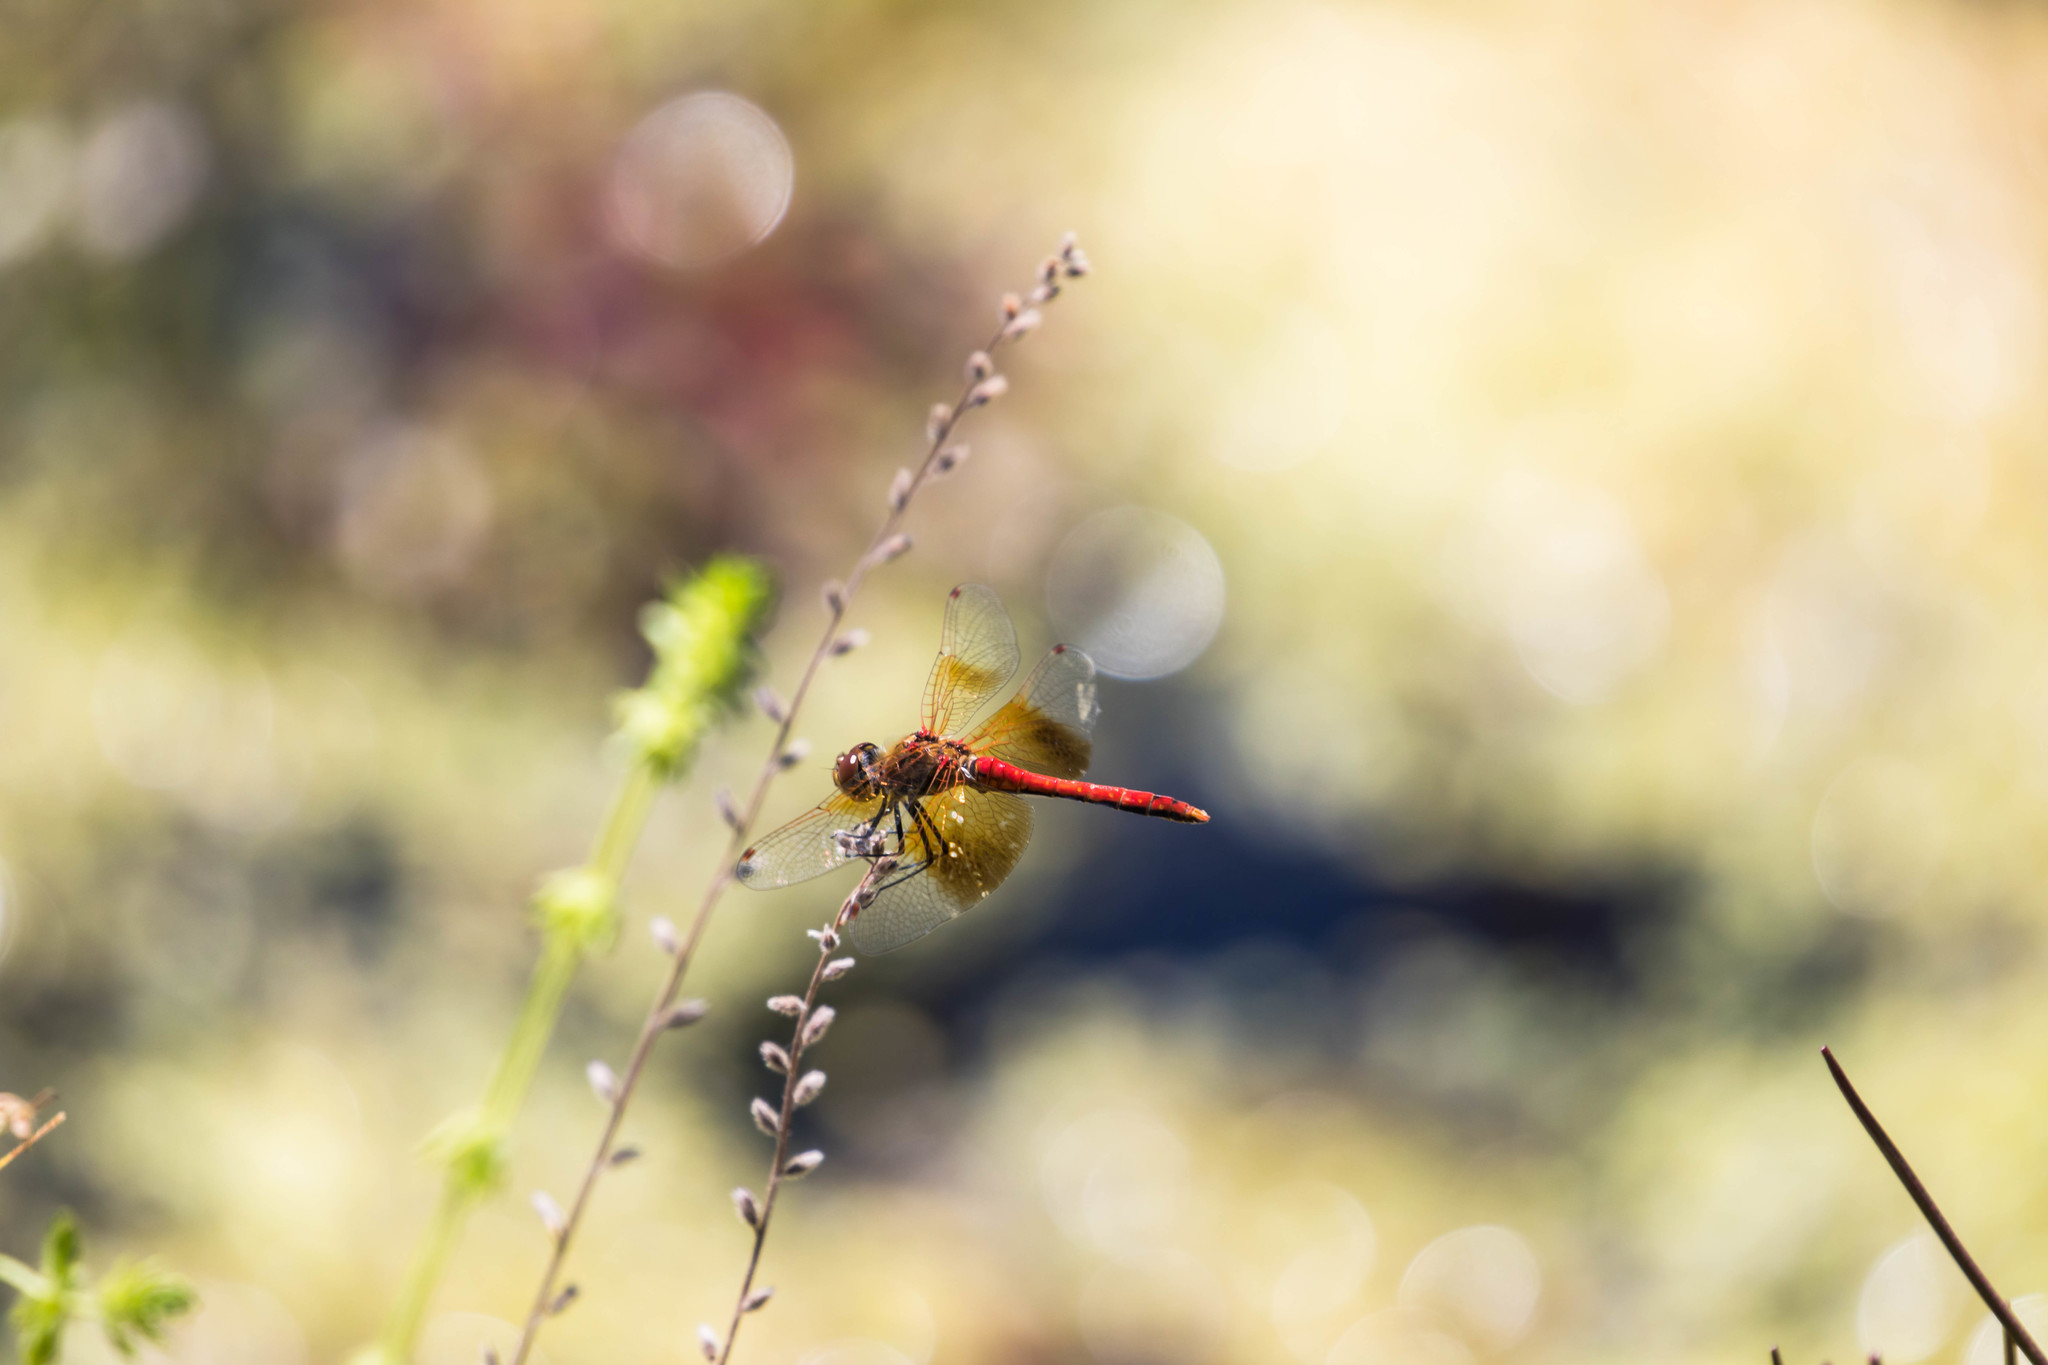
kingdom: Animalia
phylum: Arthropoda
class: Insecta
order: Odonata
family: Libellulidae
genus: Sympetrum
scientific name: Sympetrum semicinctum
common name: Band-winged meadowhawk
